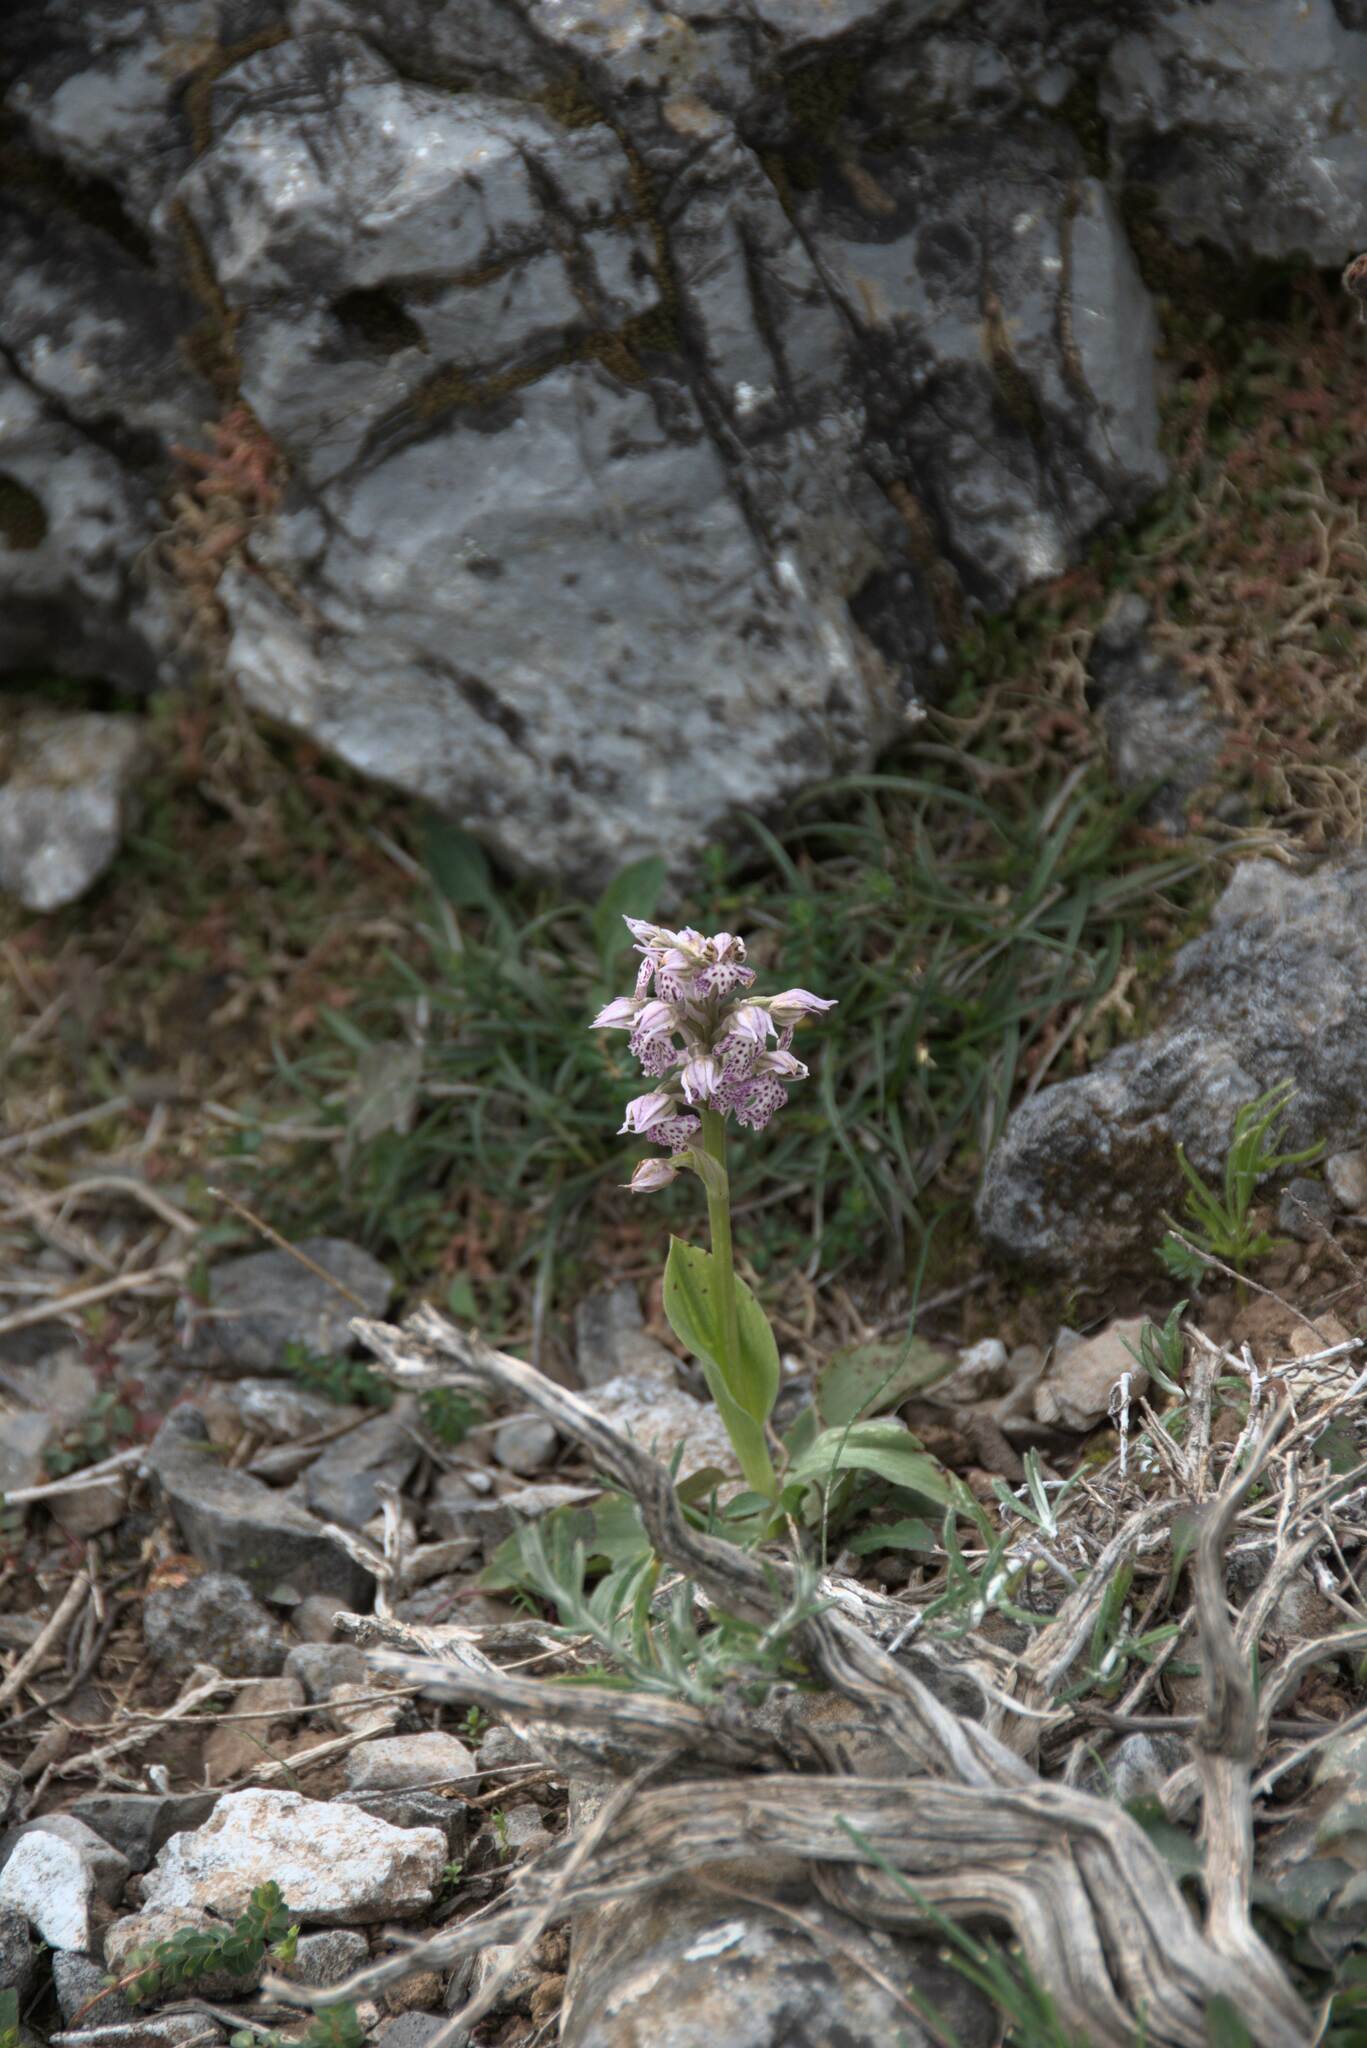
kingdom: Plantae
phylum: Tracheophyta
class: Liliopsida
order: Asparagales
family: Orchidaceae
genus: Neotinea
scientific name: Neotinea lactea
